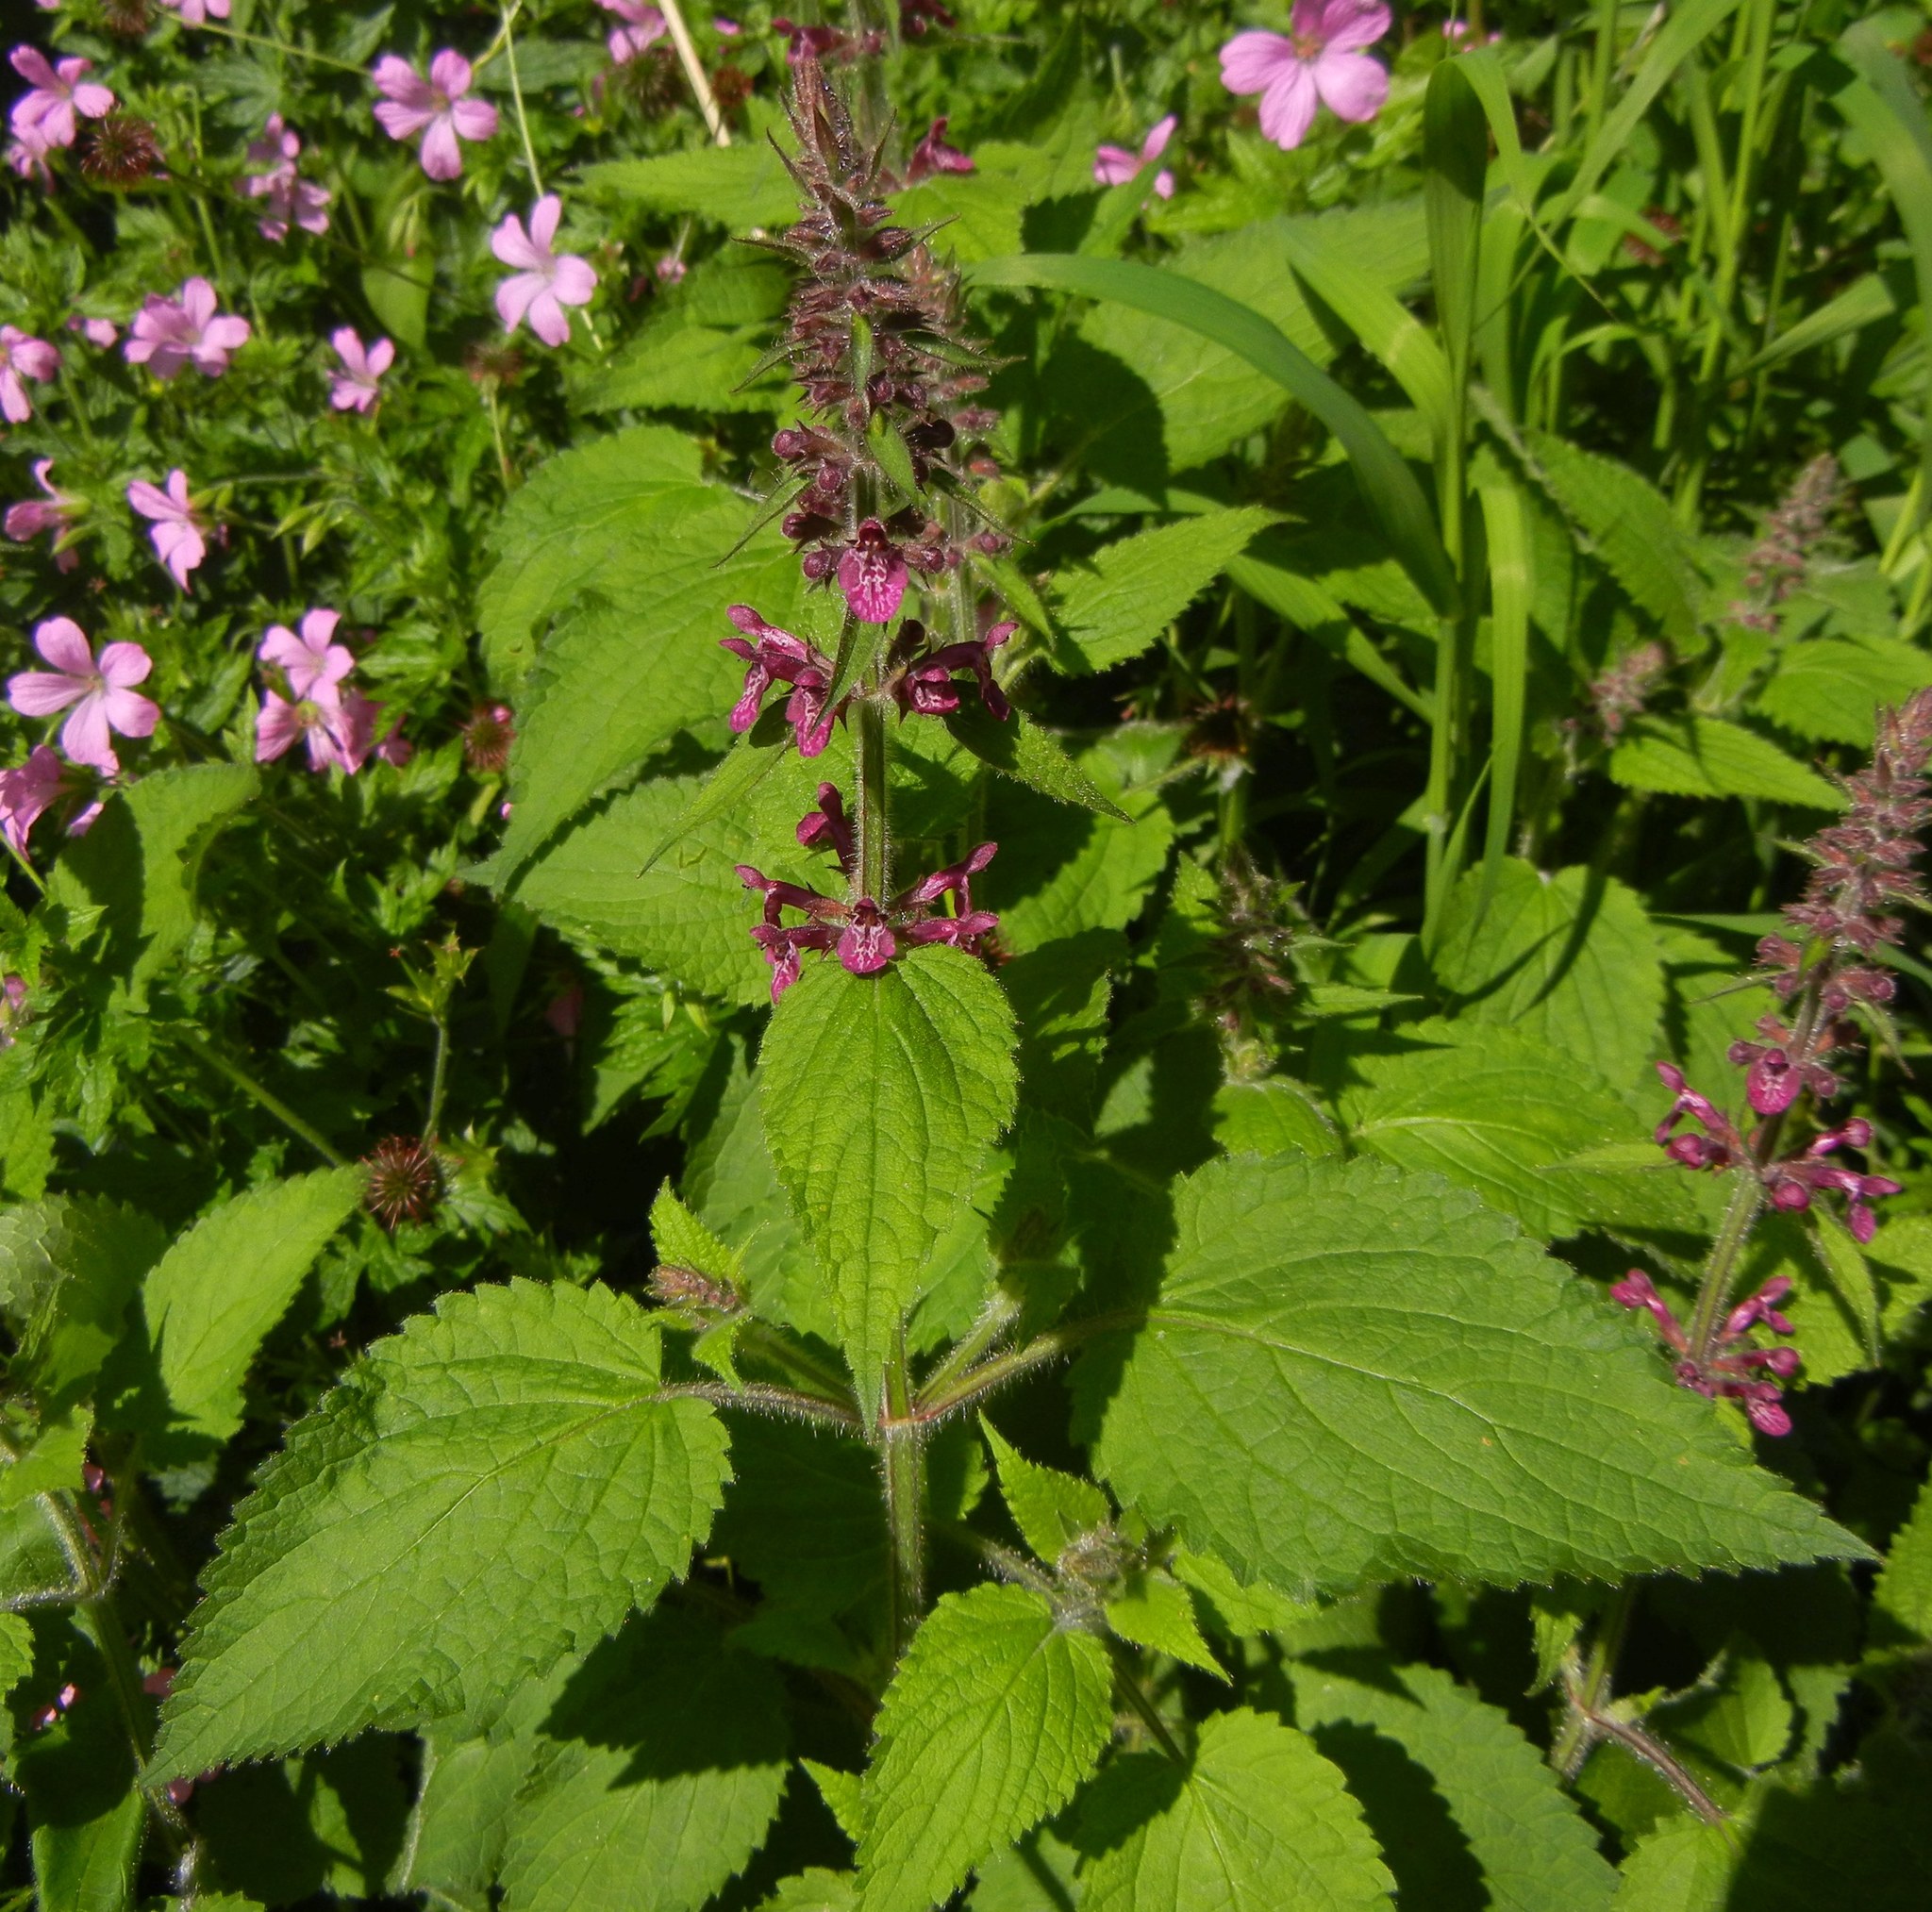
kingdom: Plantae
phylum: Tracheophyta
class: Magnoliopsida
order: Lamiales
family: Lamiaceae
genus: Stachys
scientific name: Stachys sylvatica
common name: Hedge woundwort
